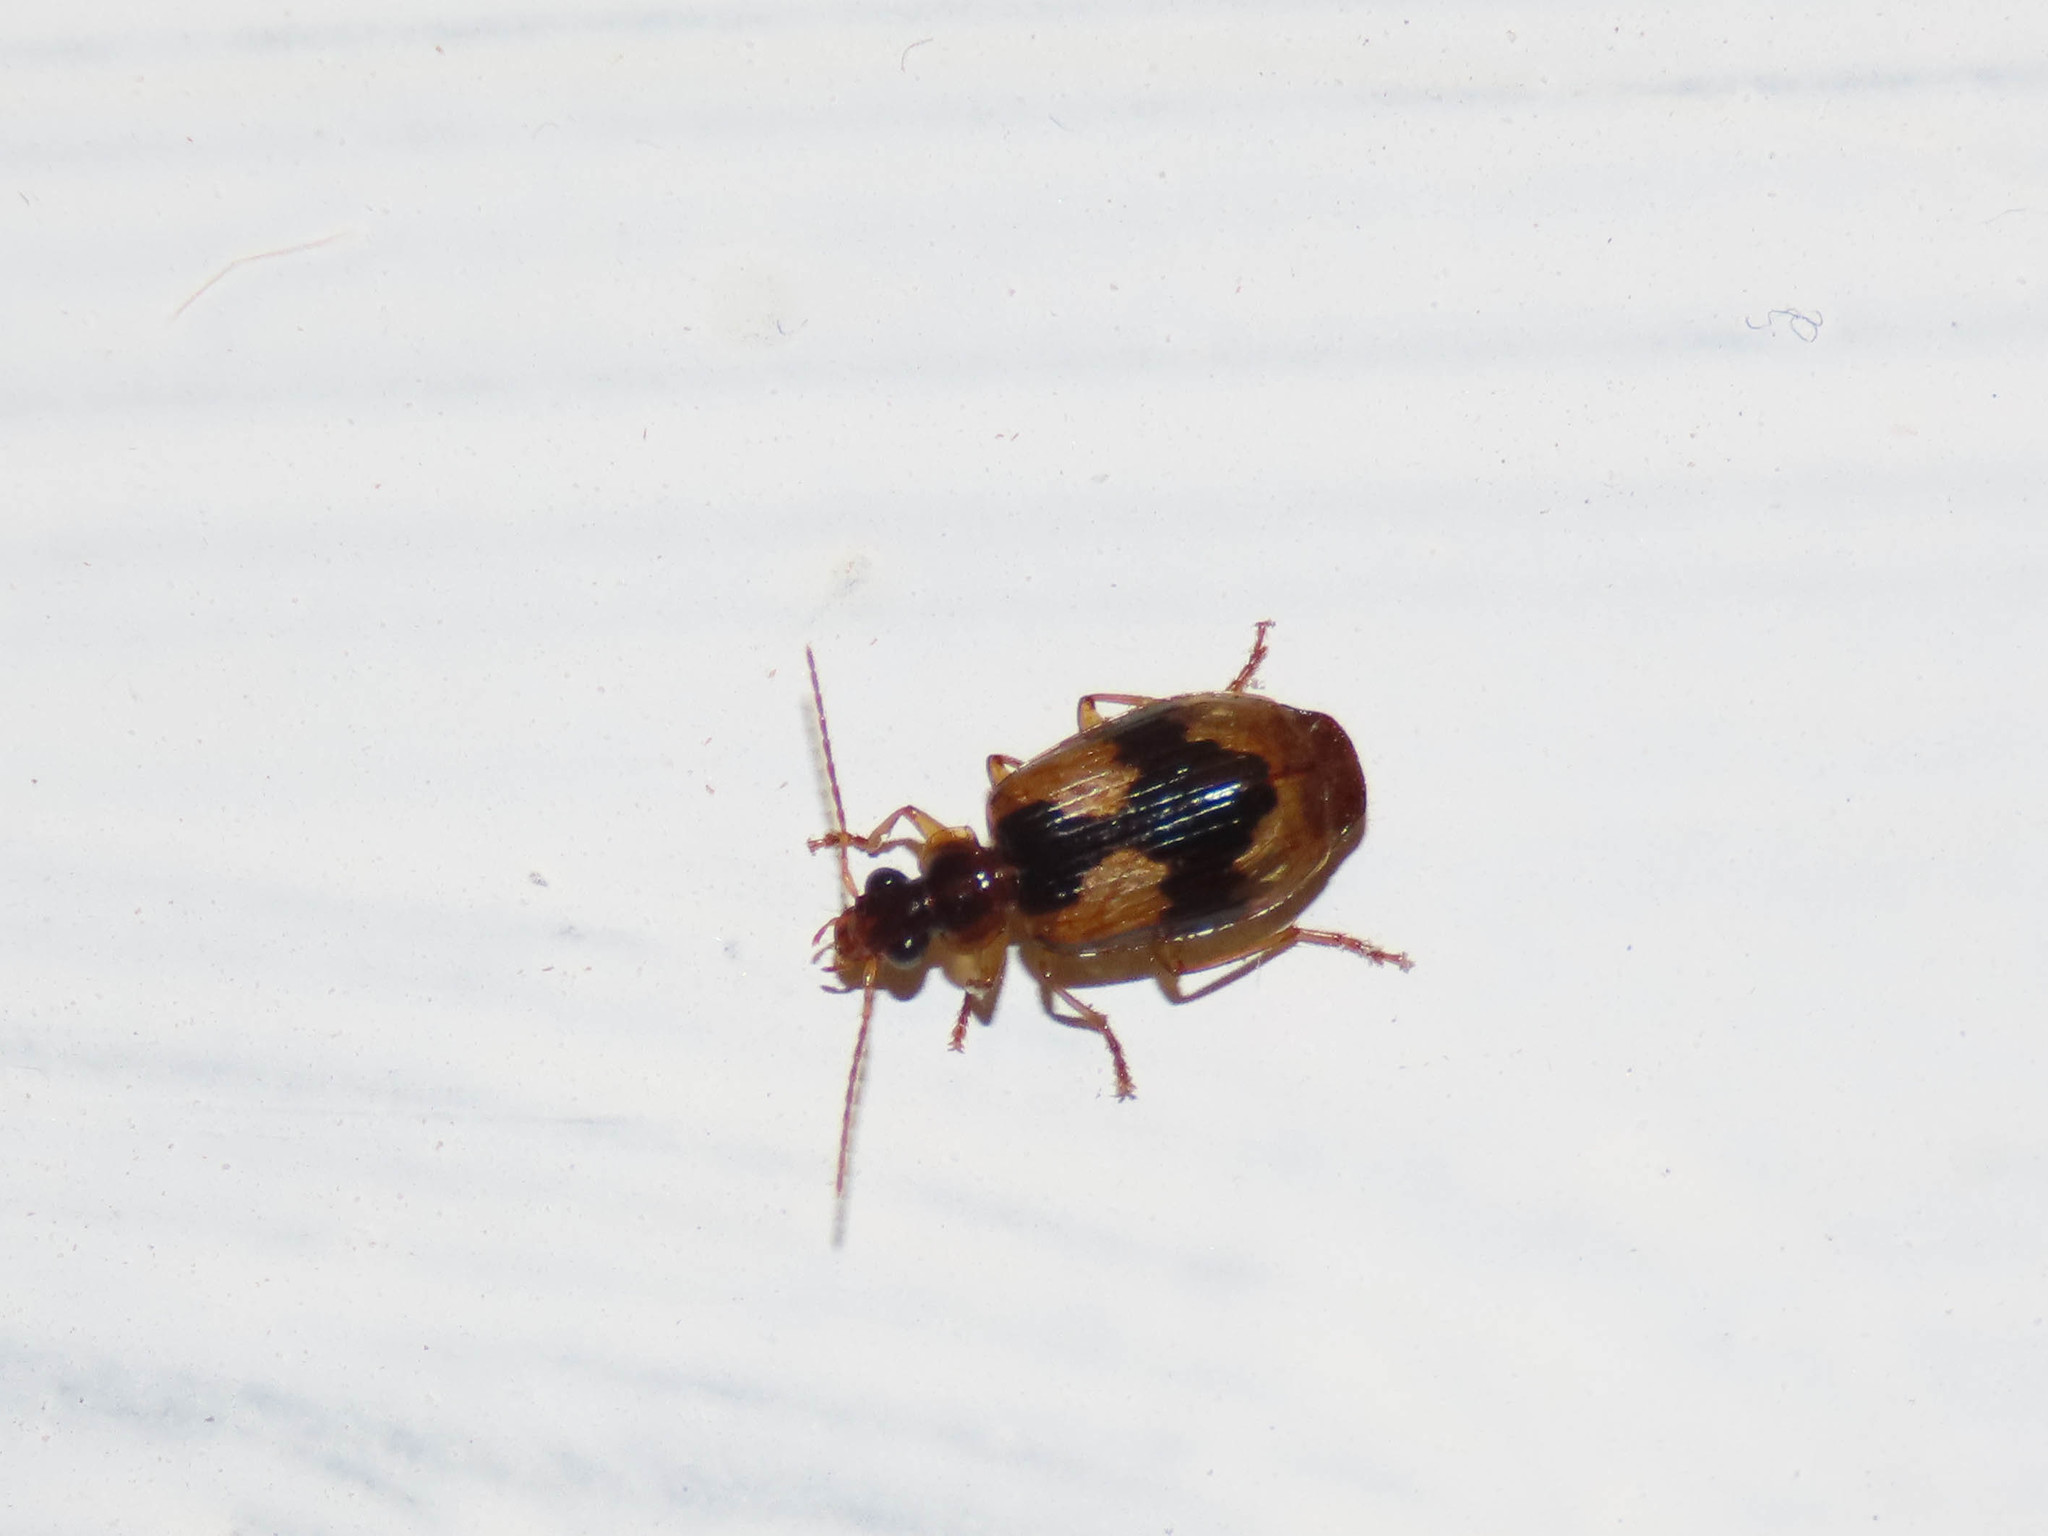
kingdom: Animalia
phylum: Arthropoda
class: Insecta
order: Coleoptera
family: Carabidae
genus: Lebia
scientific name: Lebia fuscata
